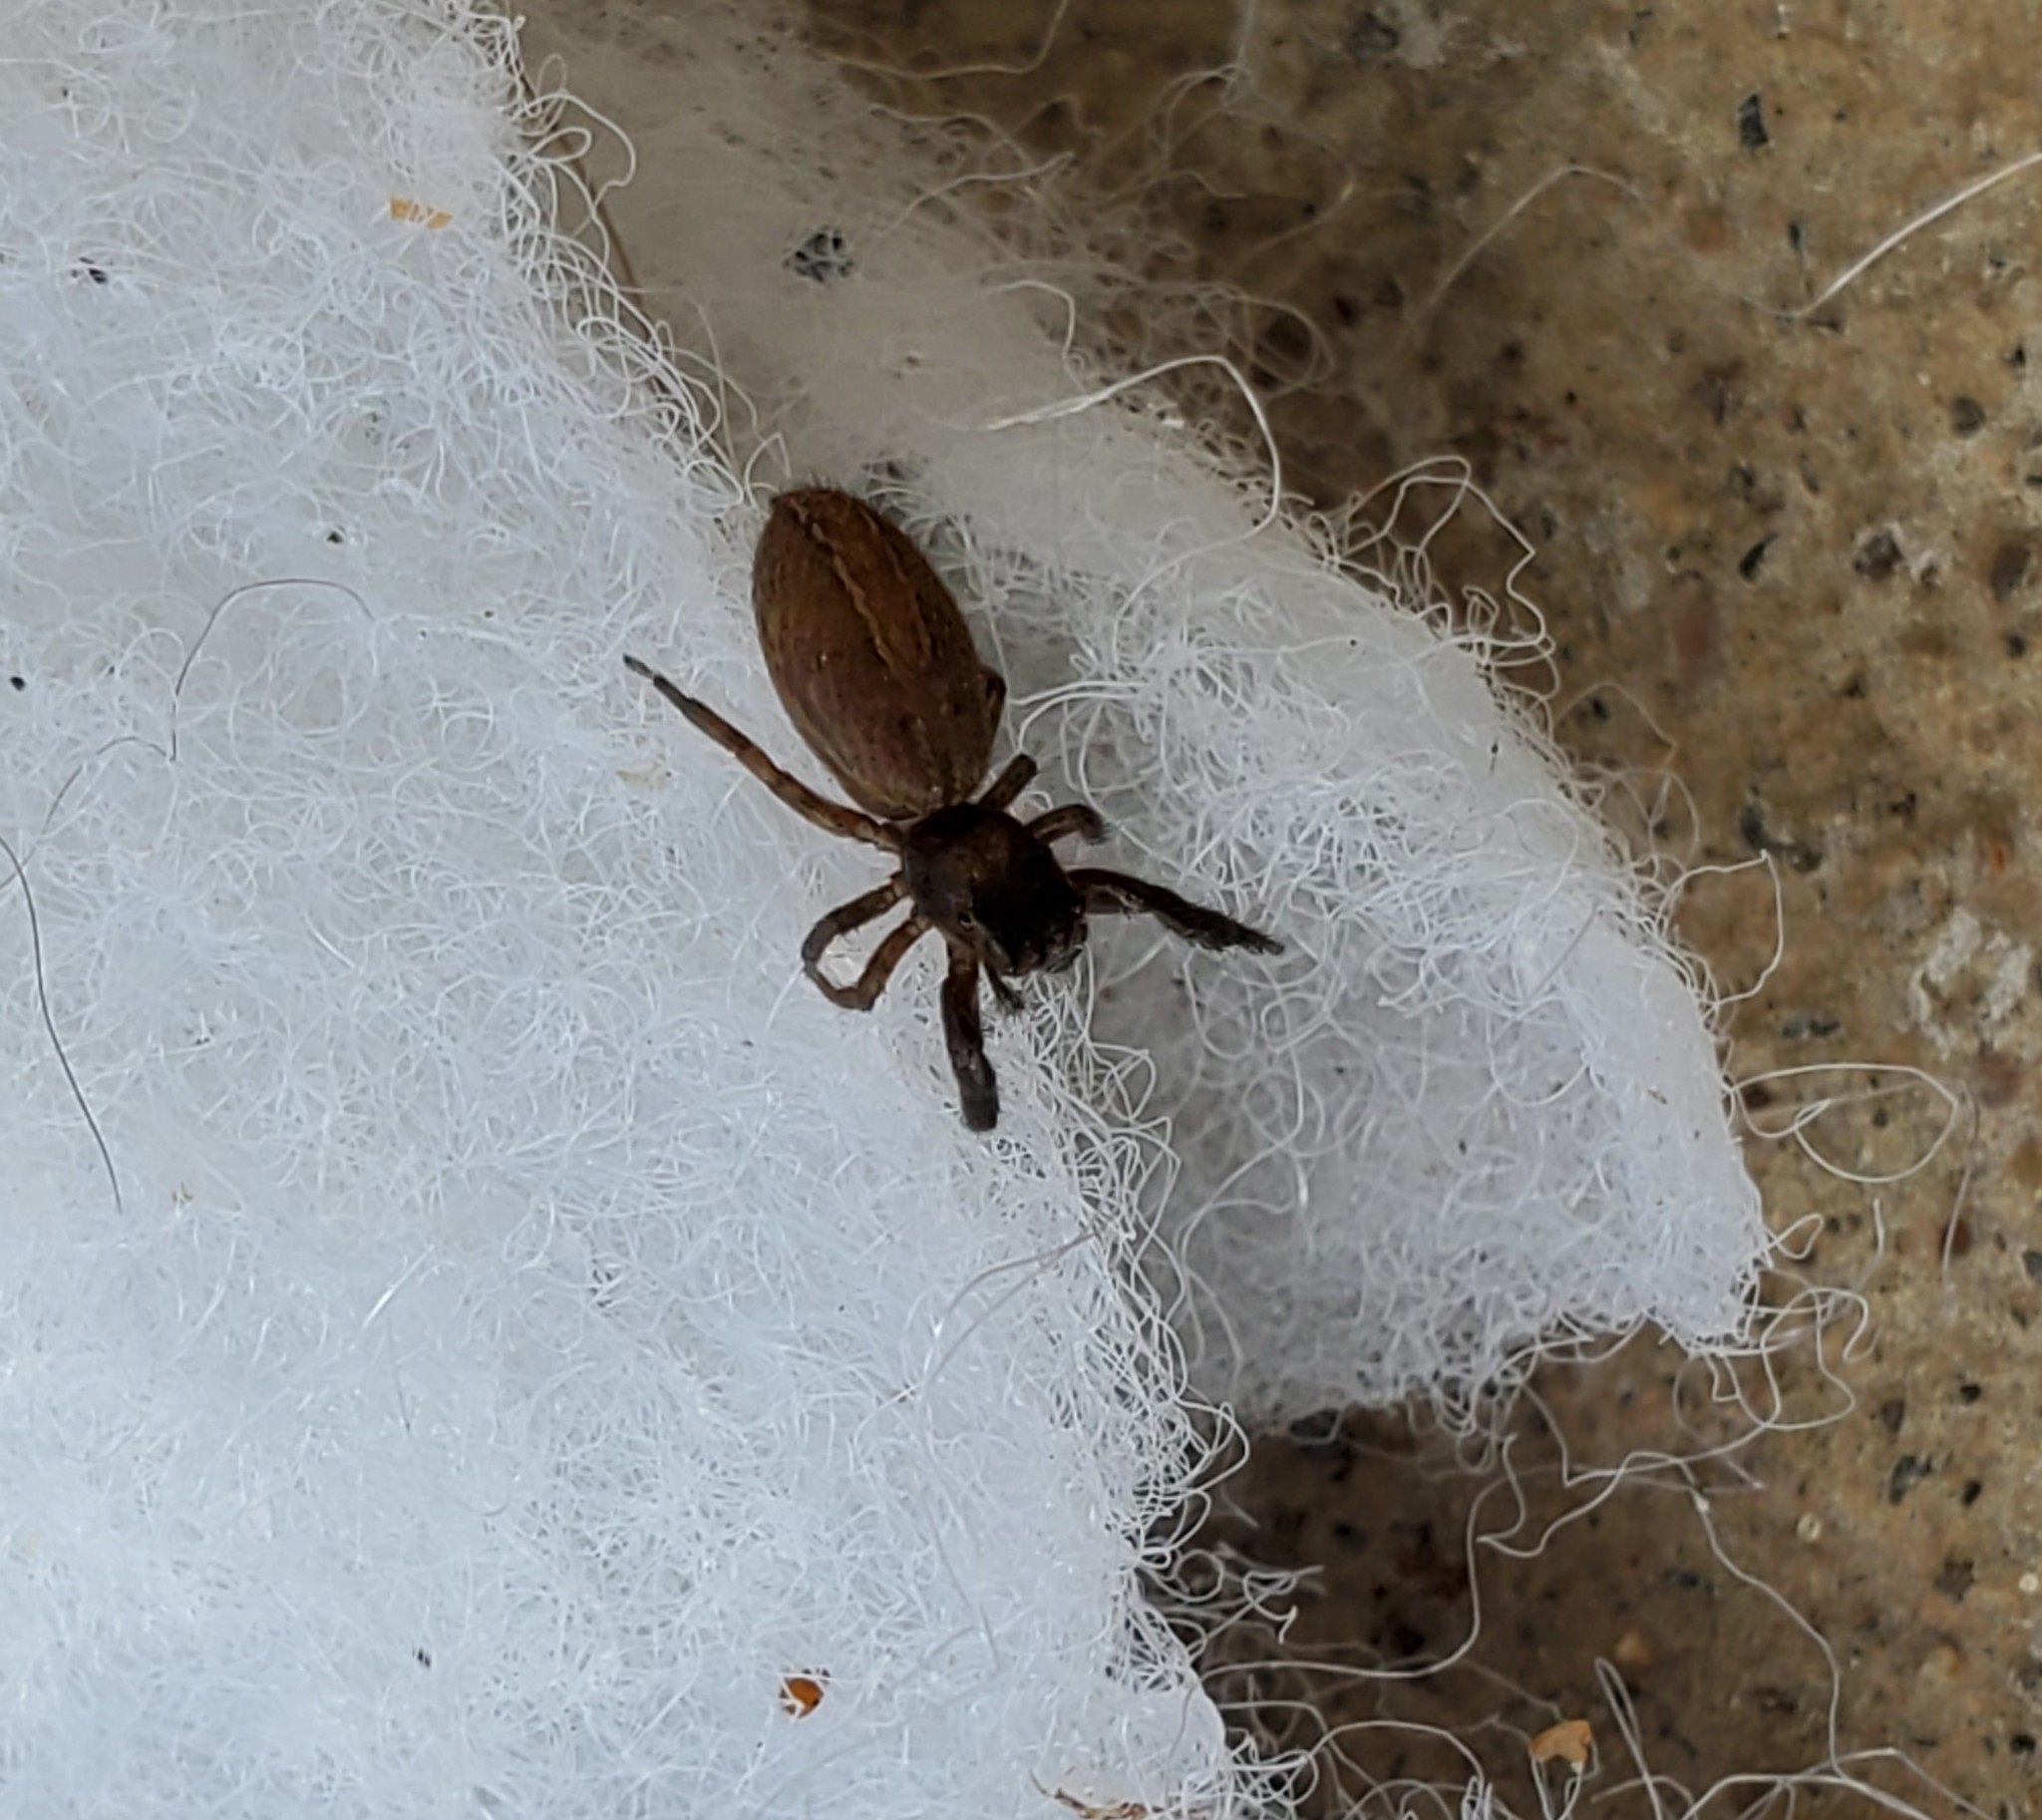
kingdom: Animalia
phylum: Arthropoda
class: Arachnida
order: Araneae
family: Salticidae
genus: Marpissa
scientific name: Marpissa lineata
